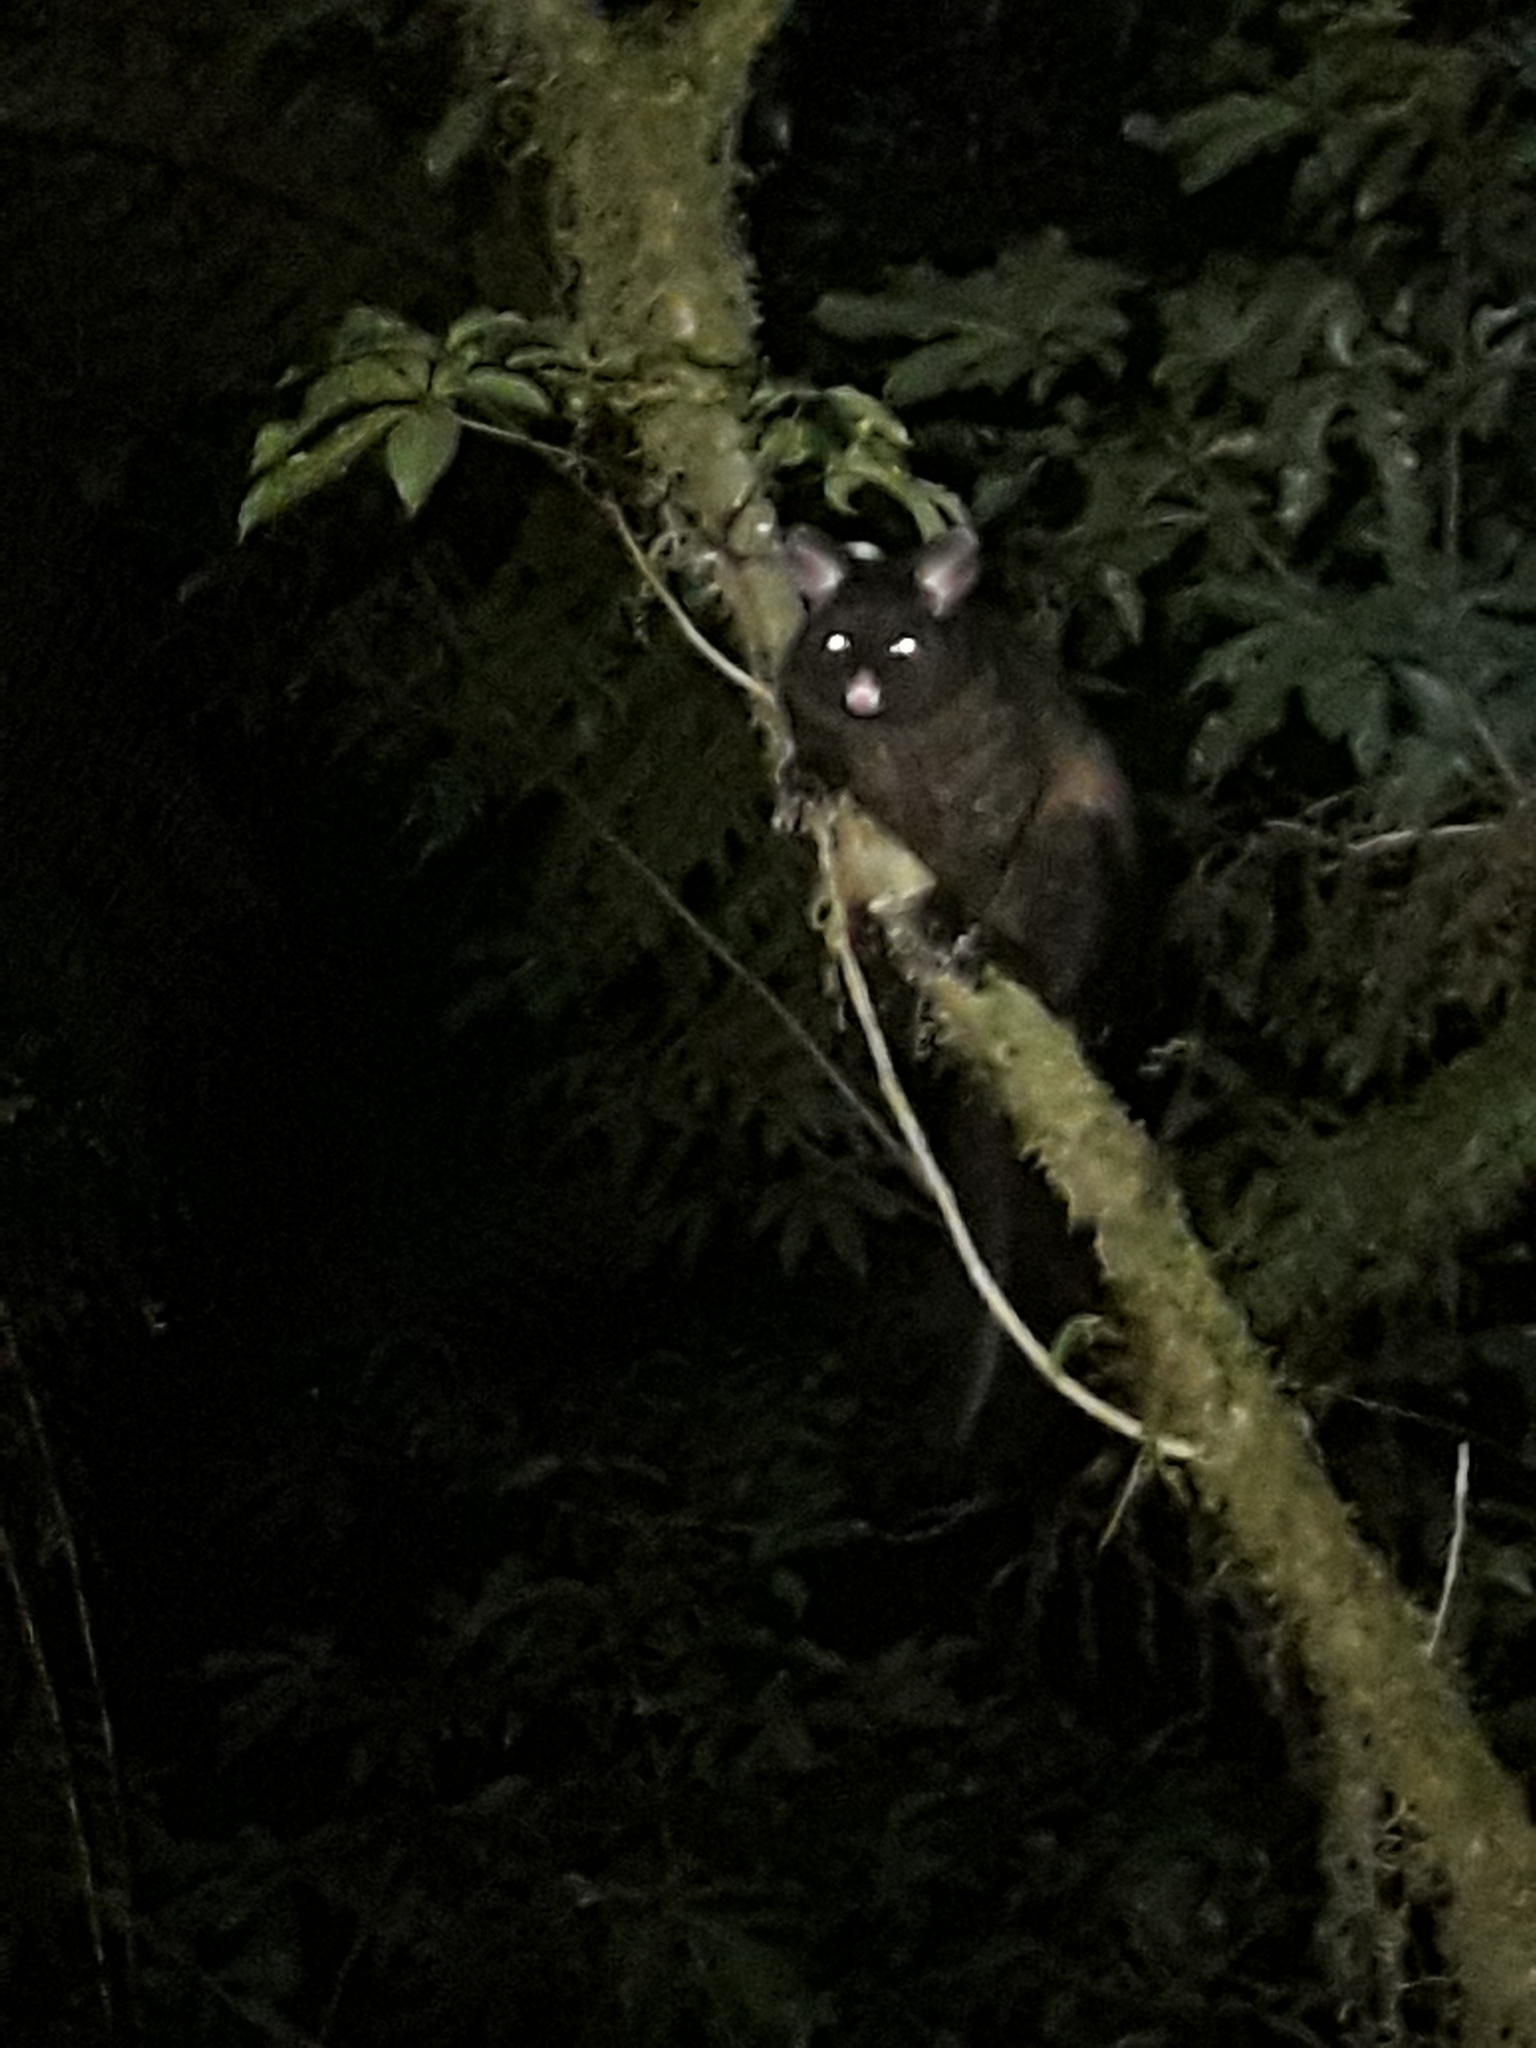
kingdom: Animalia
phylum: Chordata
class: Mammalia
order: Diprotodontia
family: Phalangeridae
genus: Trichosurus
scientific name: Trichosurus vulpecula
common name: Common brushtail
